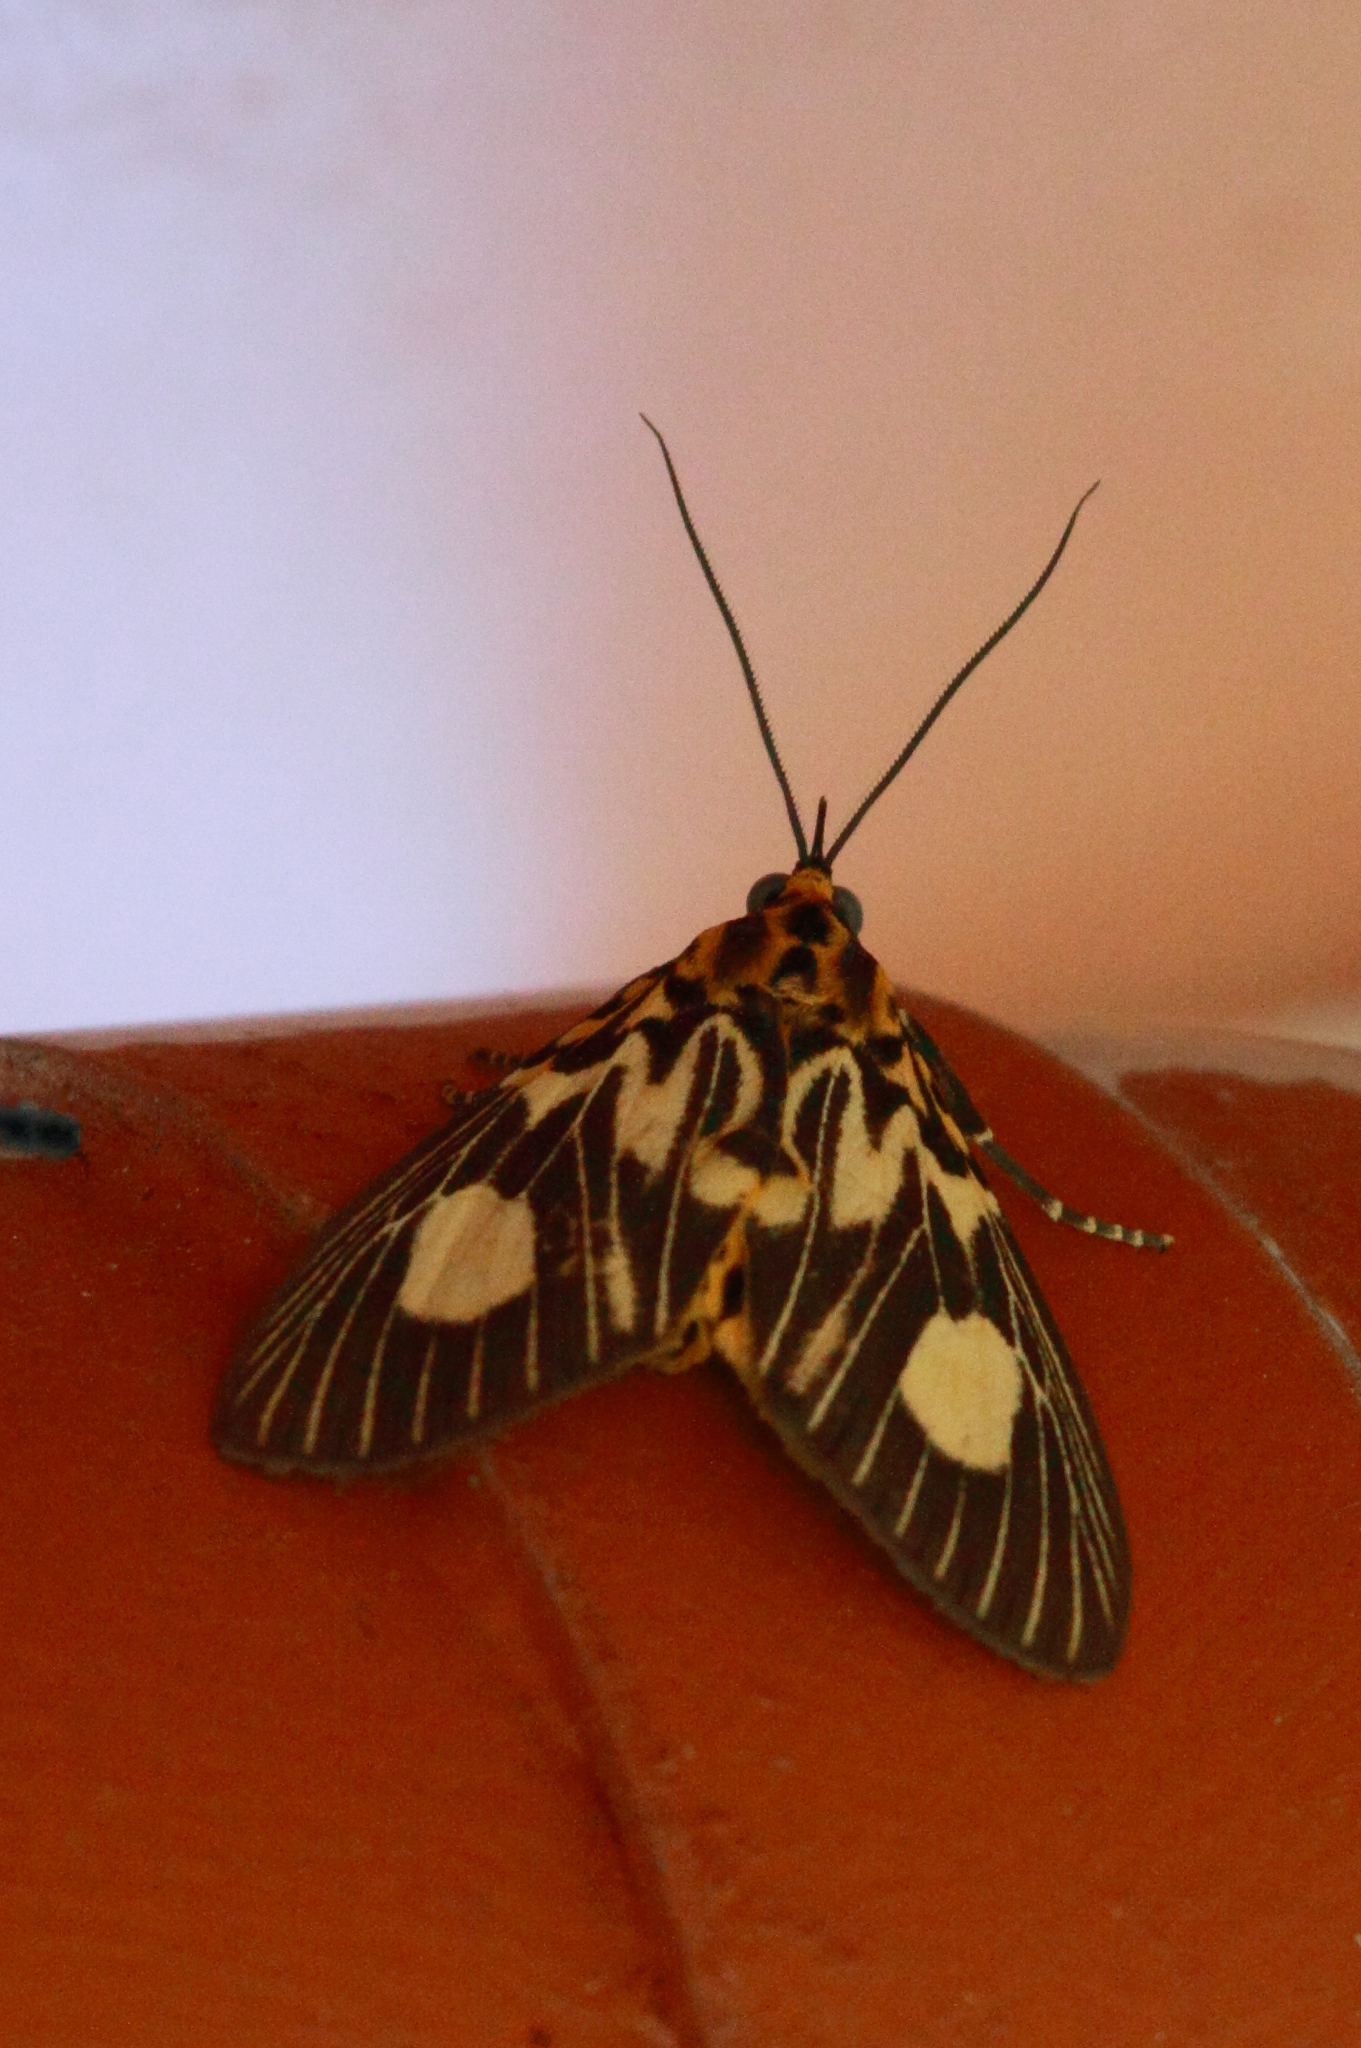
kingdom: Animalia
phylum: Arthropoda
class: Insecta
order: Lepidoptera
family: Erebidae
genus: Asota
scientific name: Asota plagiata
